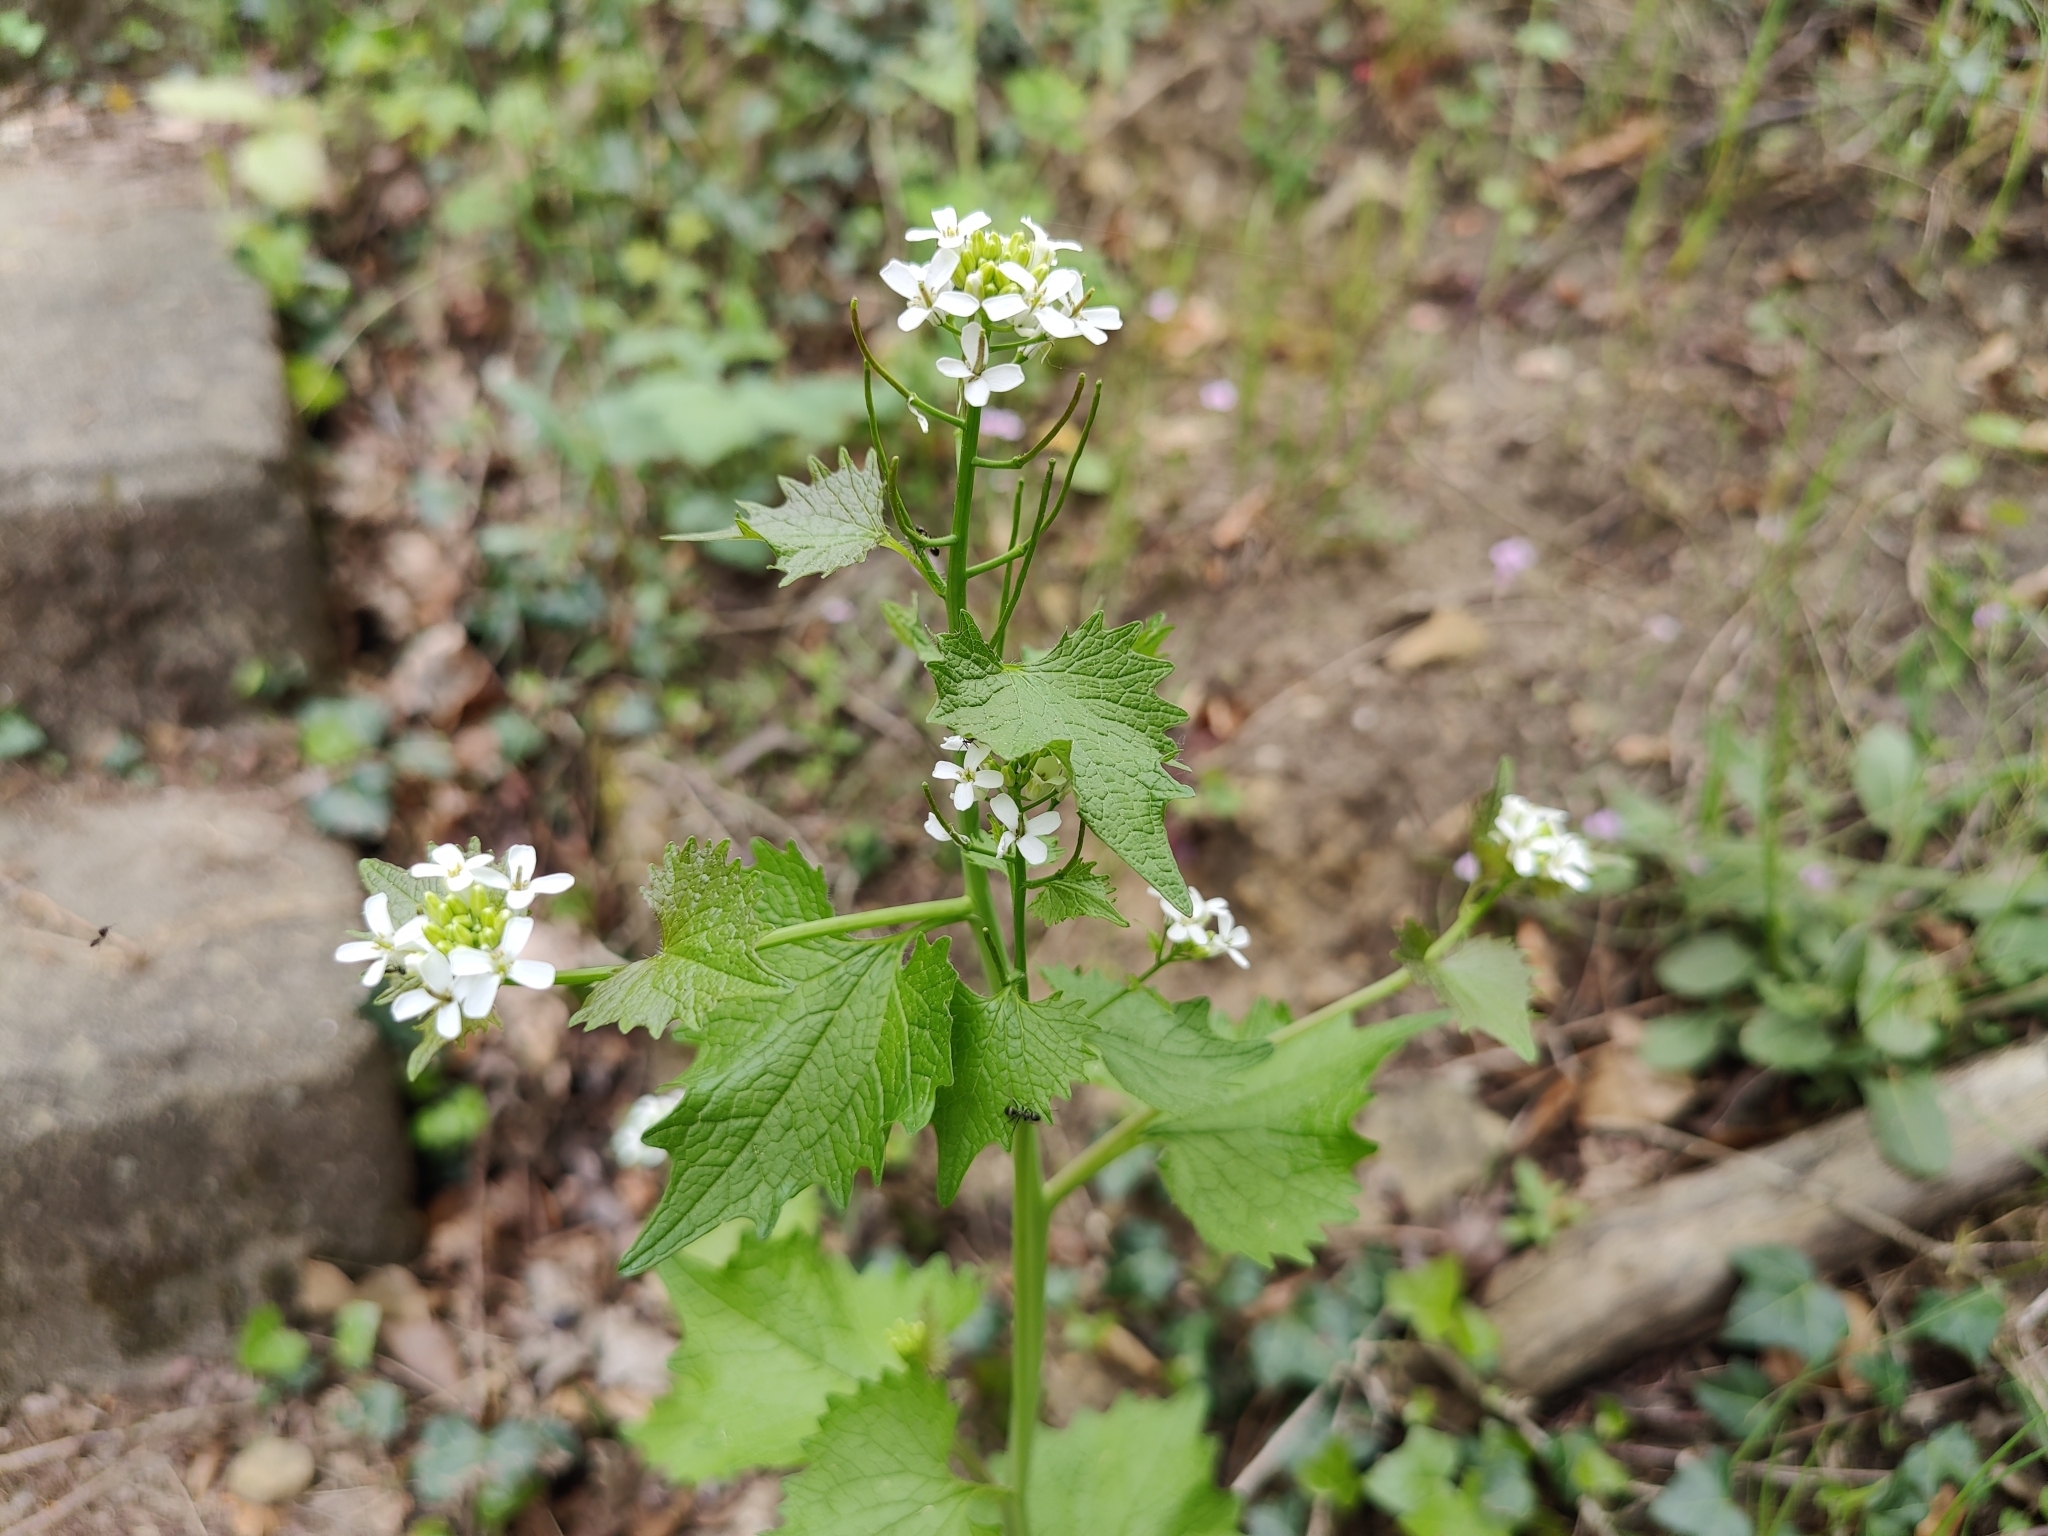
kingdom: Plantae
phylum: Tracheophyta
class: Magnoliopsida
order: Brassicales
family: Brassicaceae
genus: Alliaria
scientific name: Alliaria petiolata
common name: Garlic mustard
